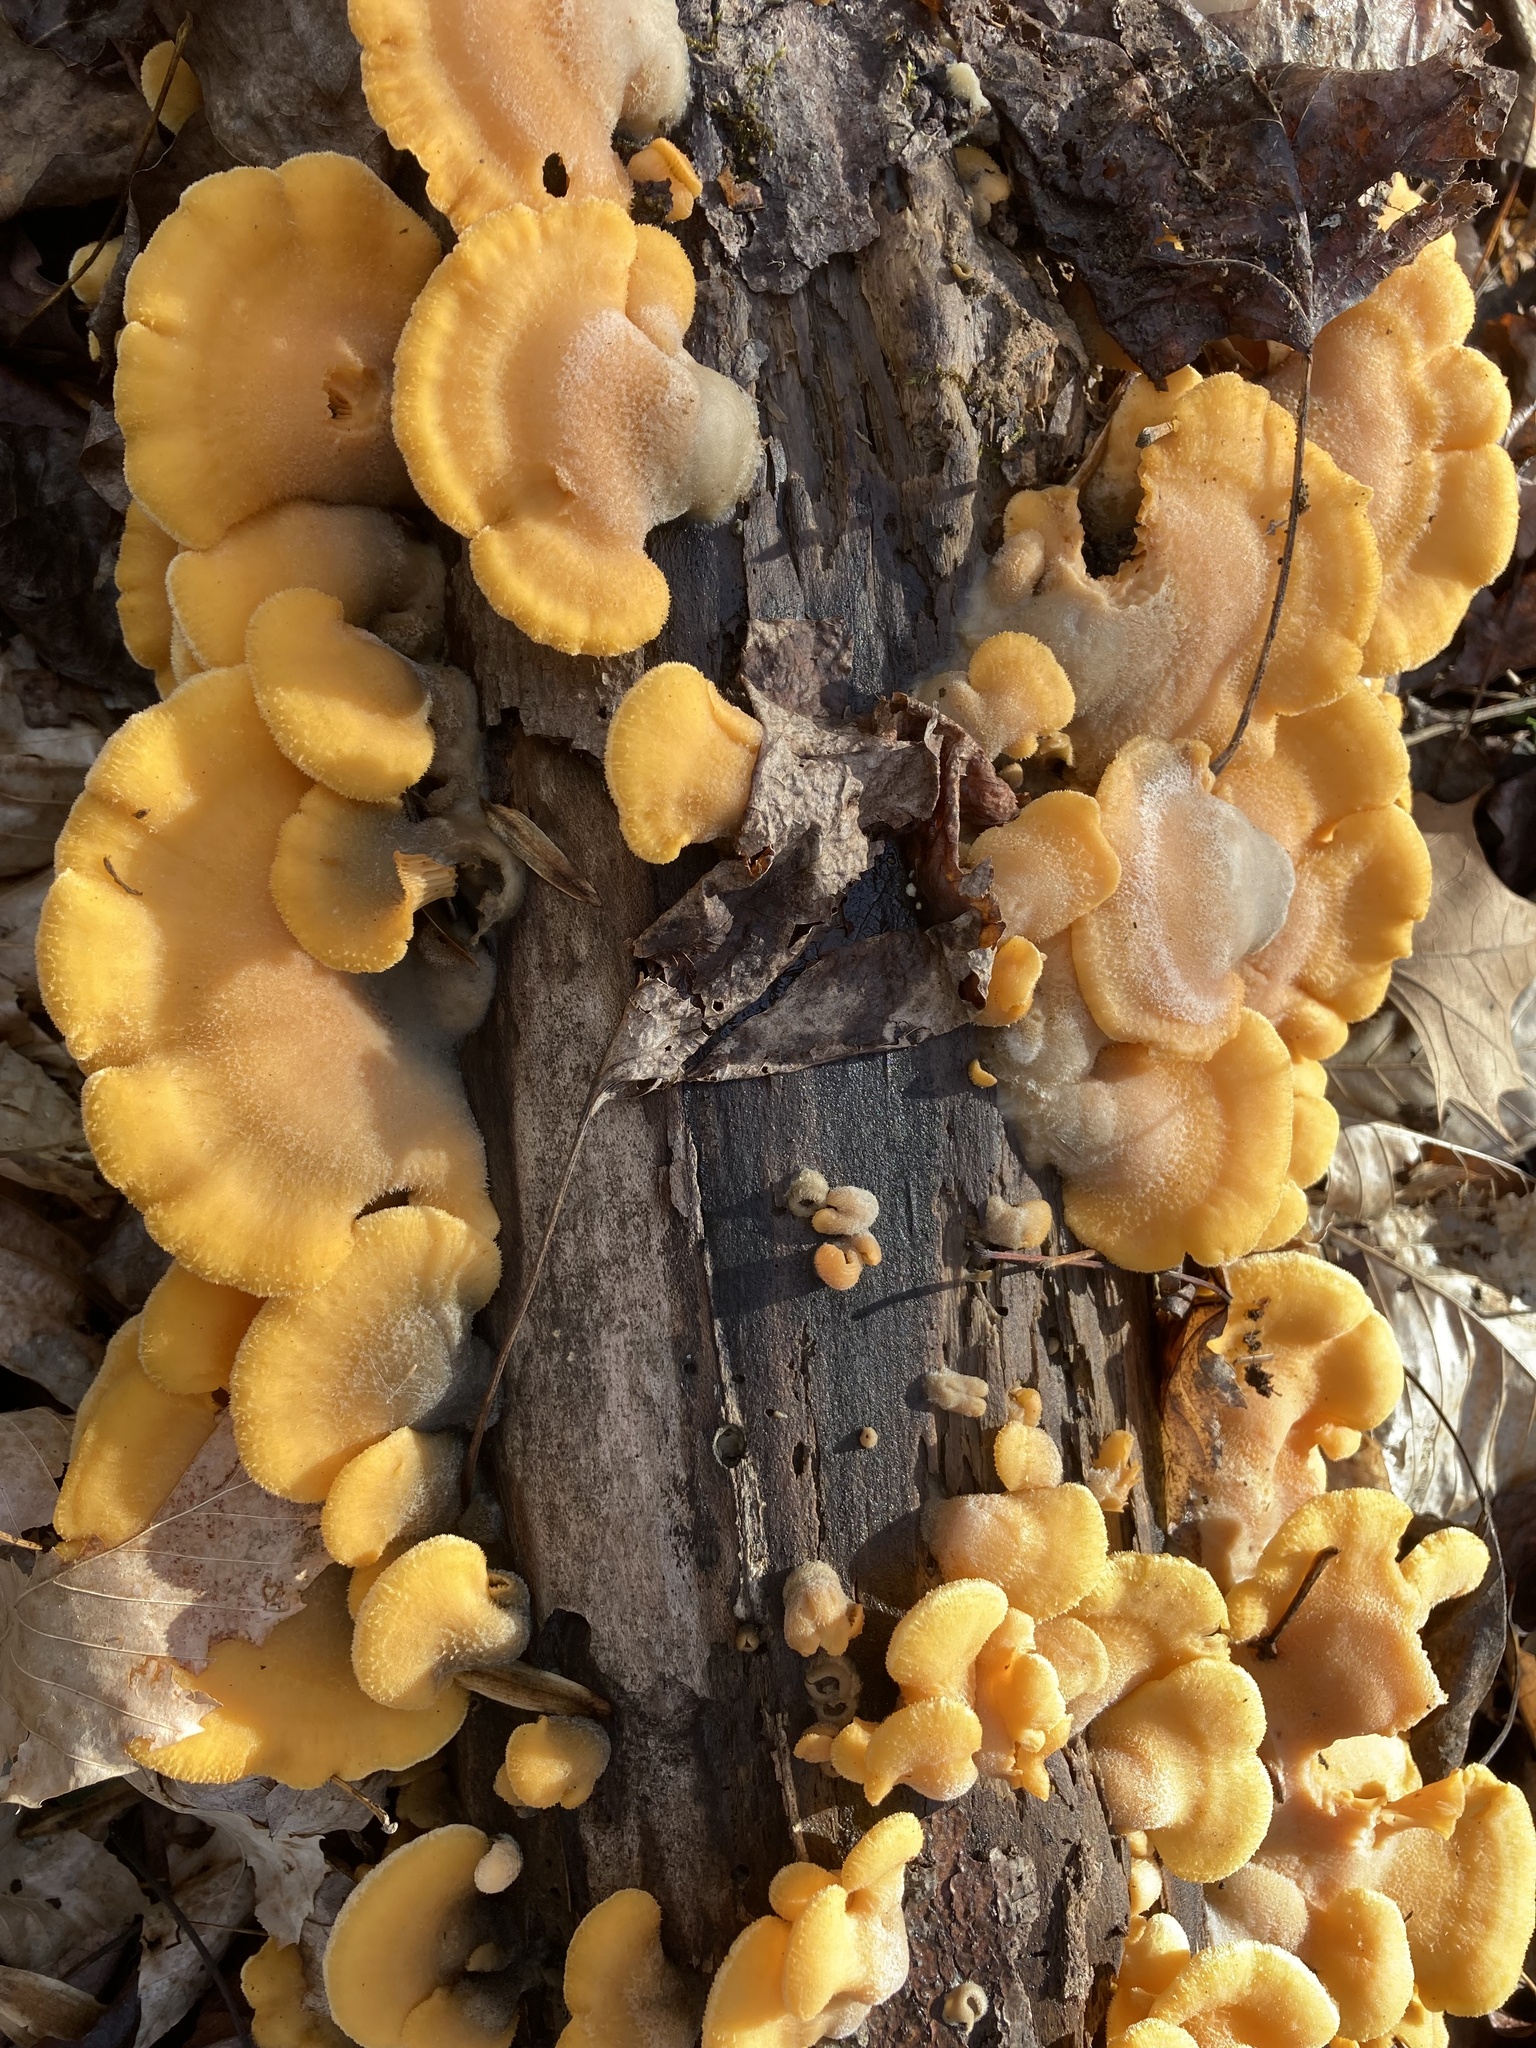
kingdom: Fungi
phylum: Basidiomycota
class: Agaricomycetes
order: Agaricales
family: Phyllotopsidaceae
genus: Phyllotopsis
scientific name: Phyllotopsis nidulans
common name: Orange mock oyster
